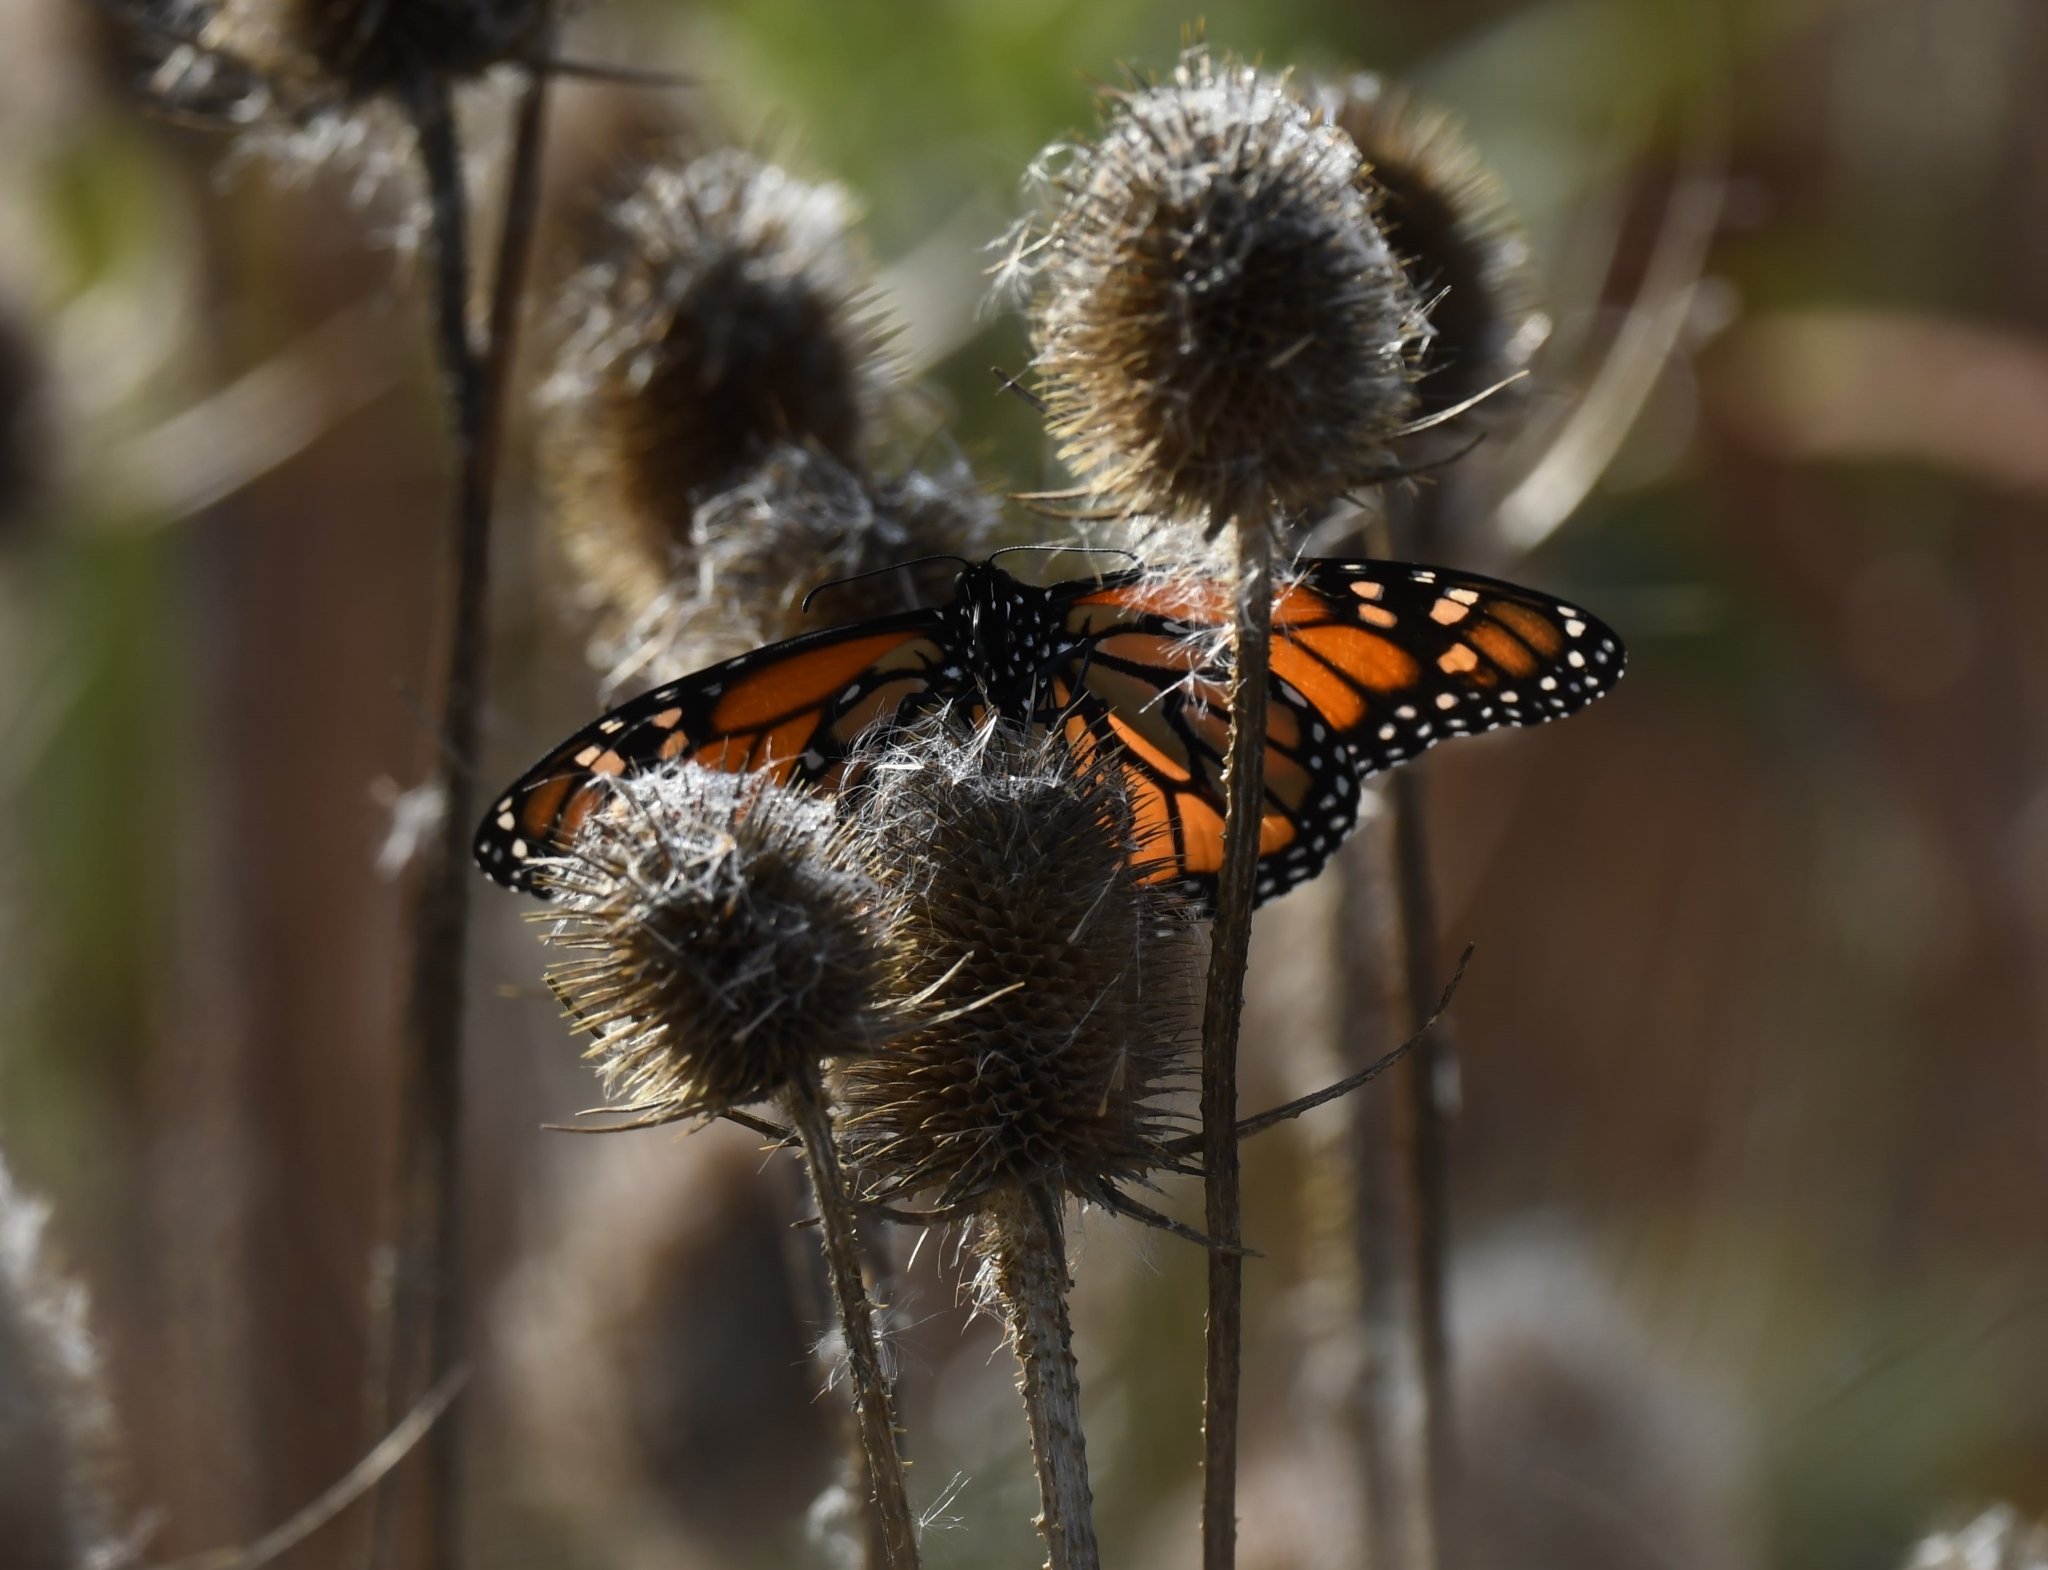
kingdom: Animalia
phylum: Arthropoda
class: Insecta
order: Lepidoptera
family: Nymphalidae
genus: Danaus
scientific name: Danaus plexippus
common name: Monarch
